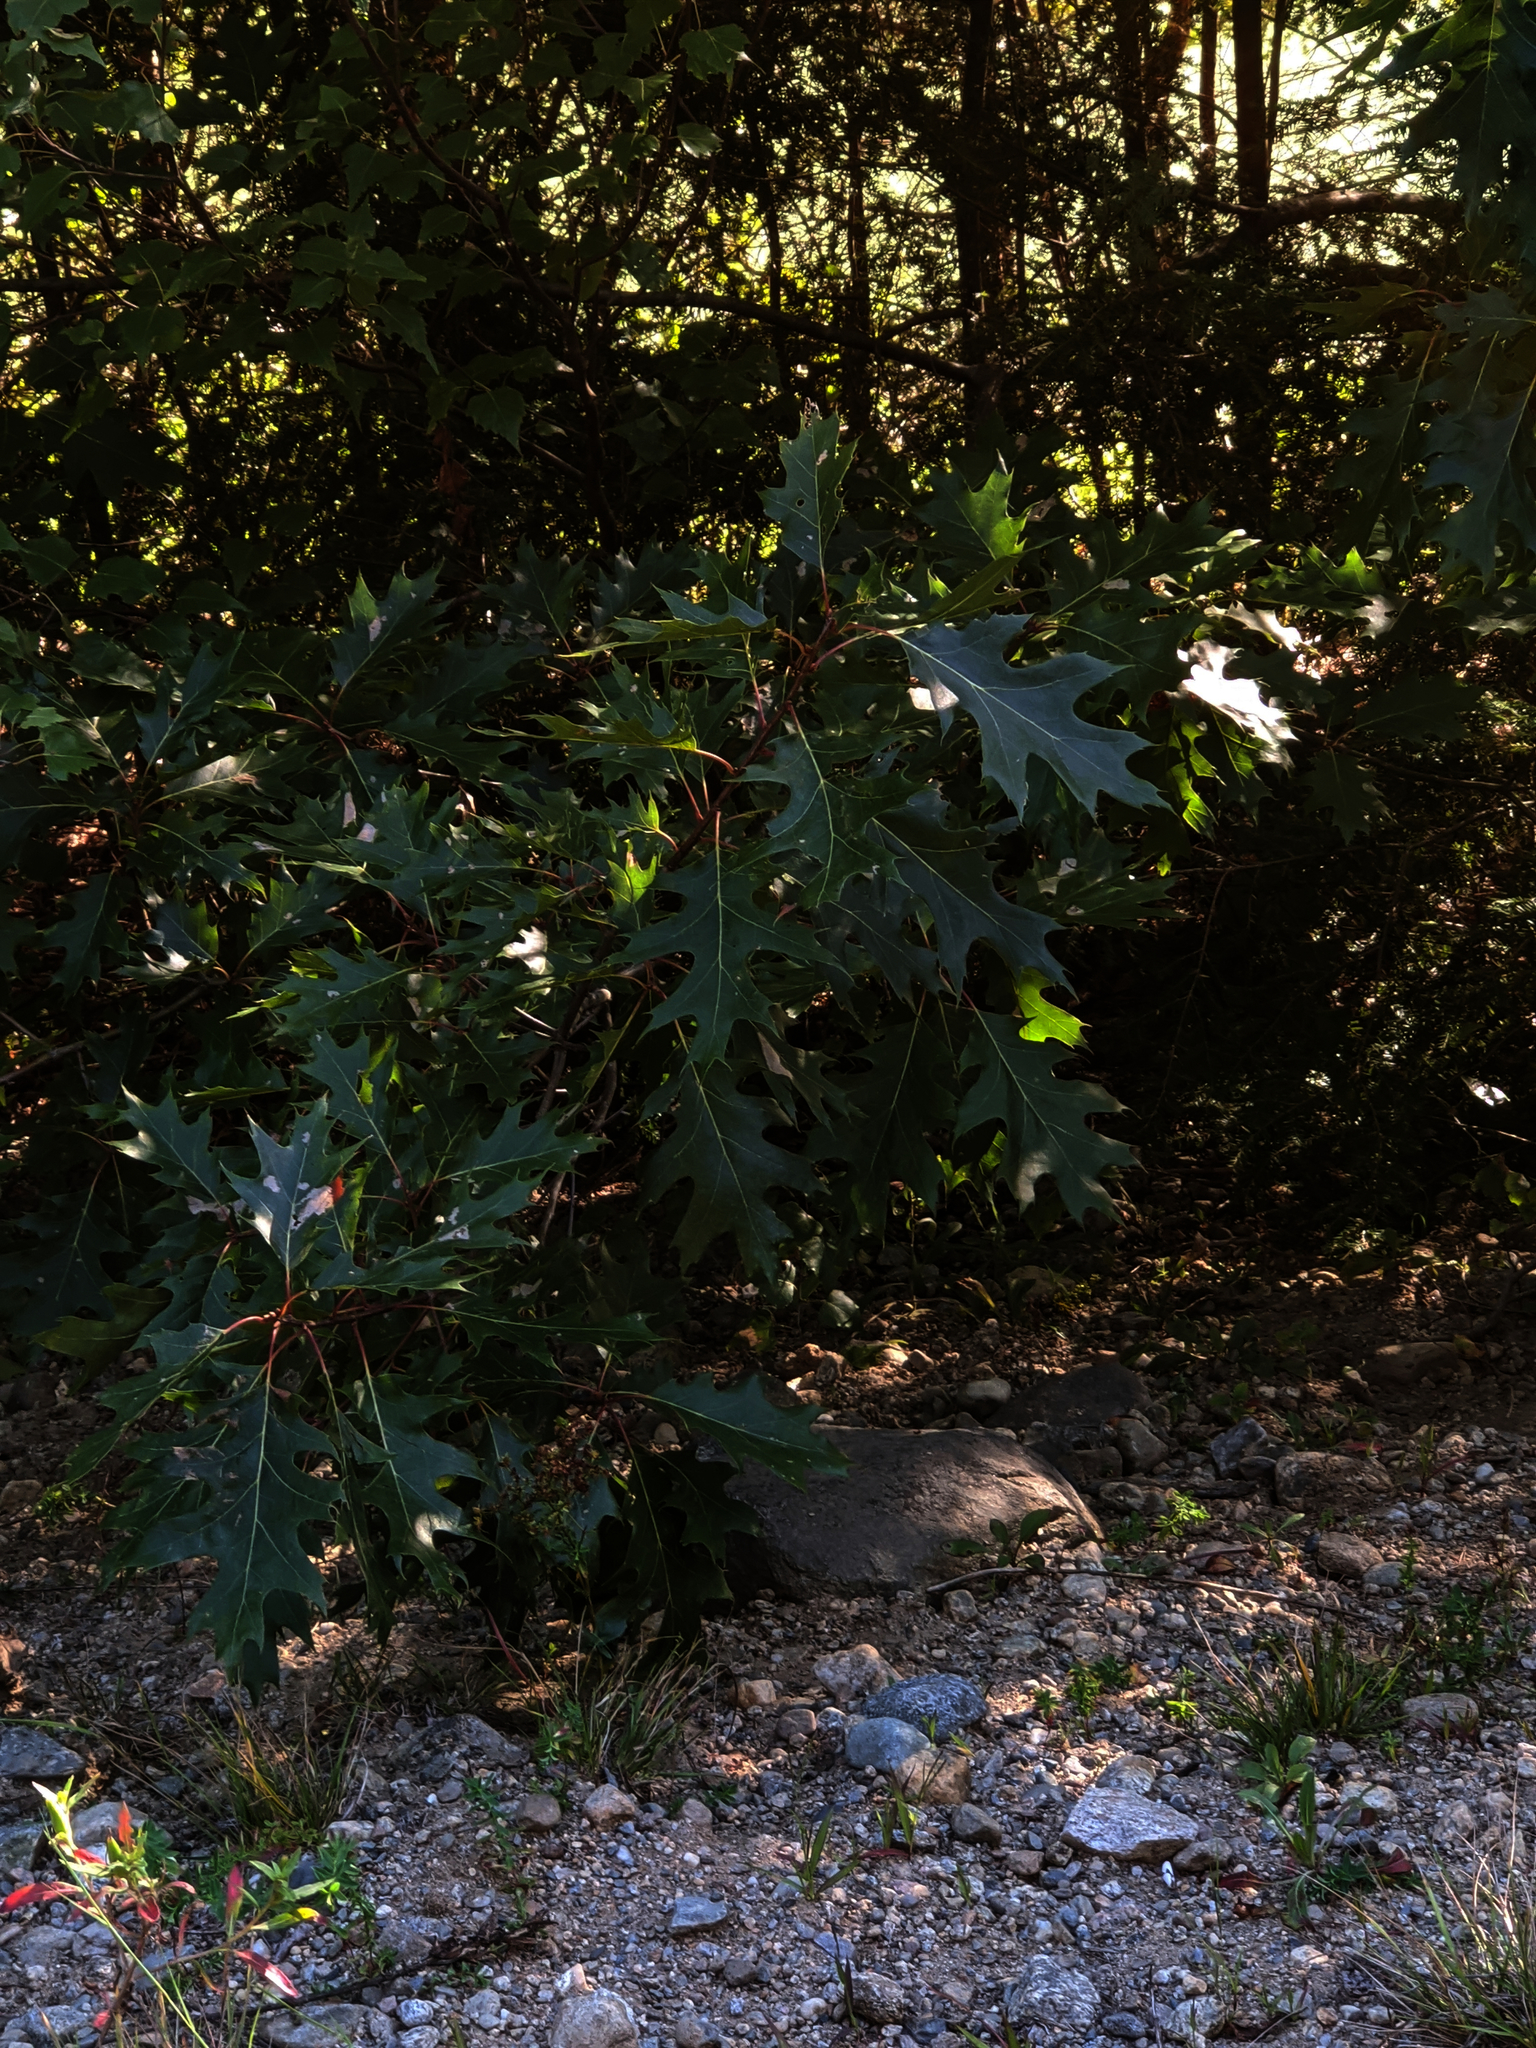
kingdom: Plantae
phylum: Tracheophyta
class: Magnoliopsida
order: Fagales
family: Fagaceae
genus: Quercus
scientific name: Quercus rubra
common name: Red oak
